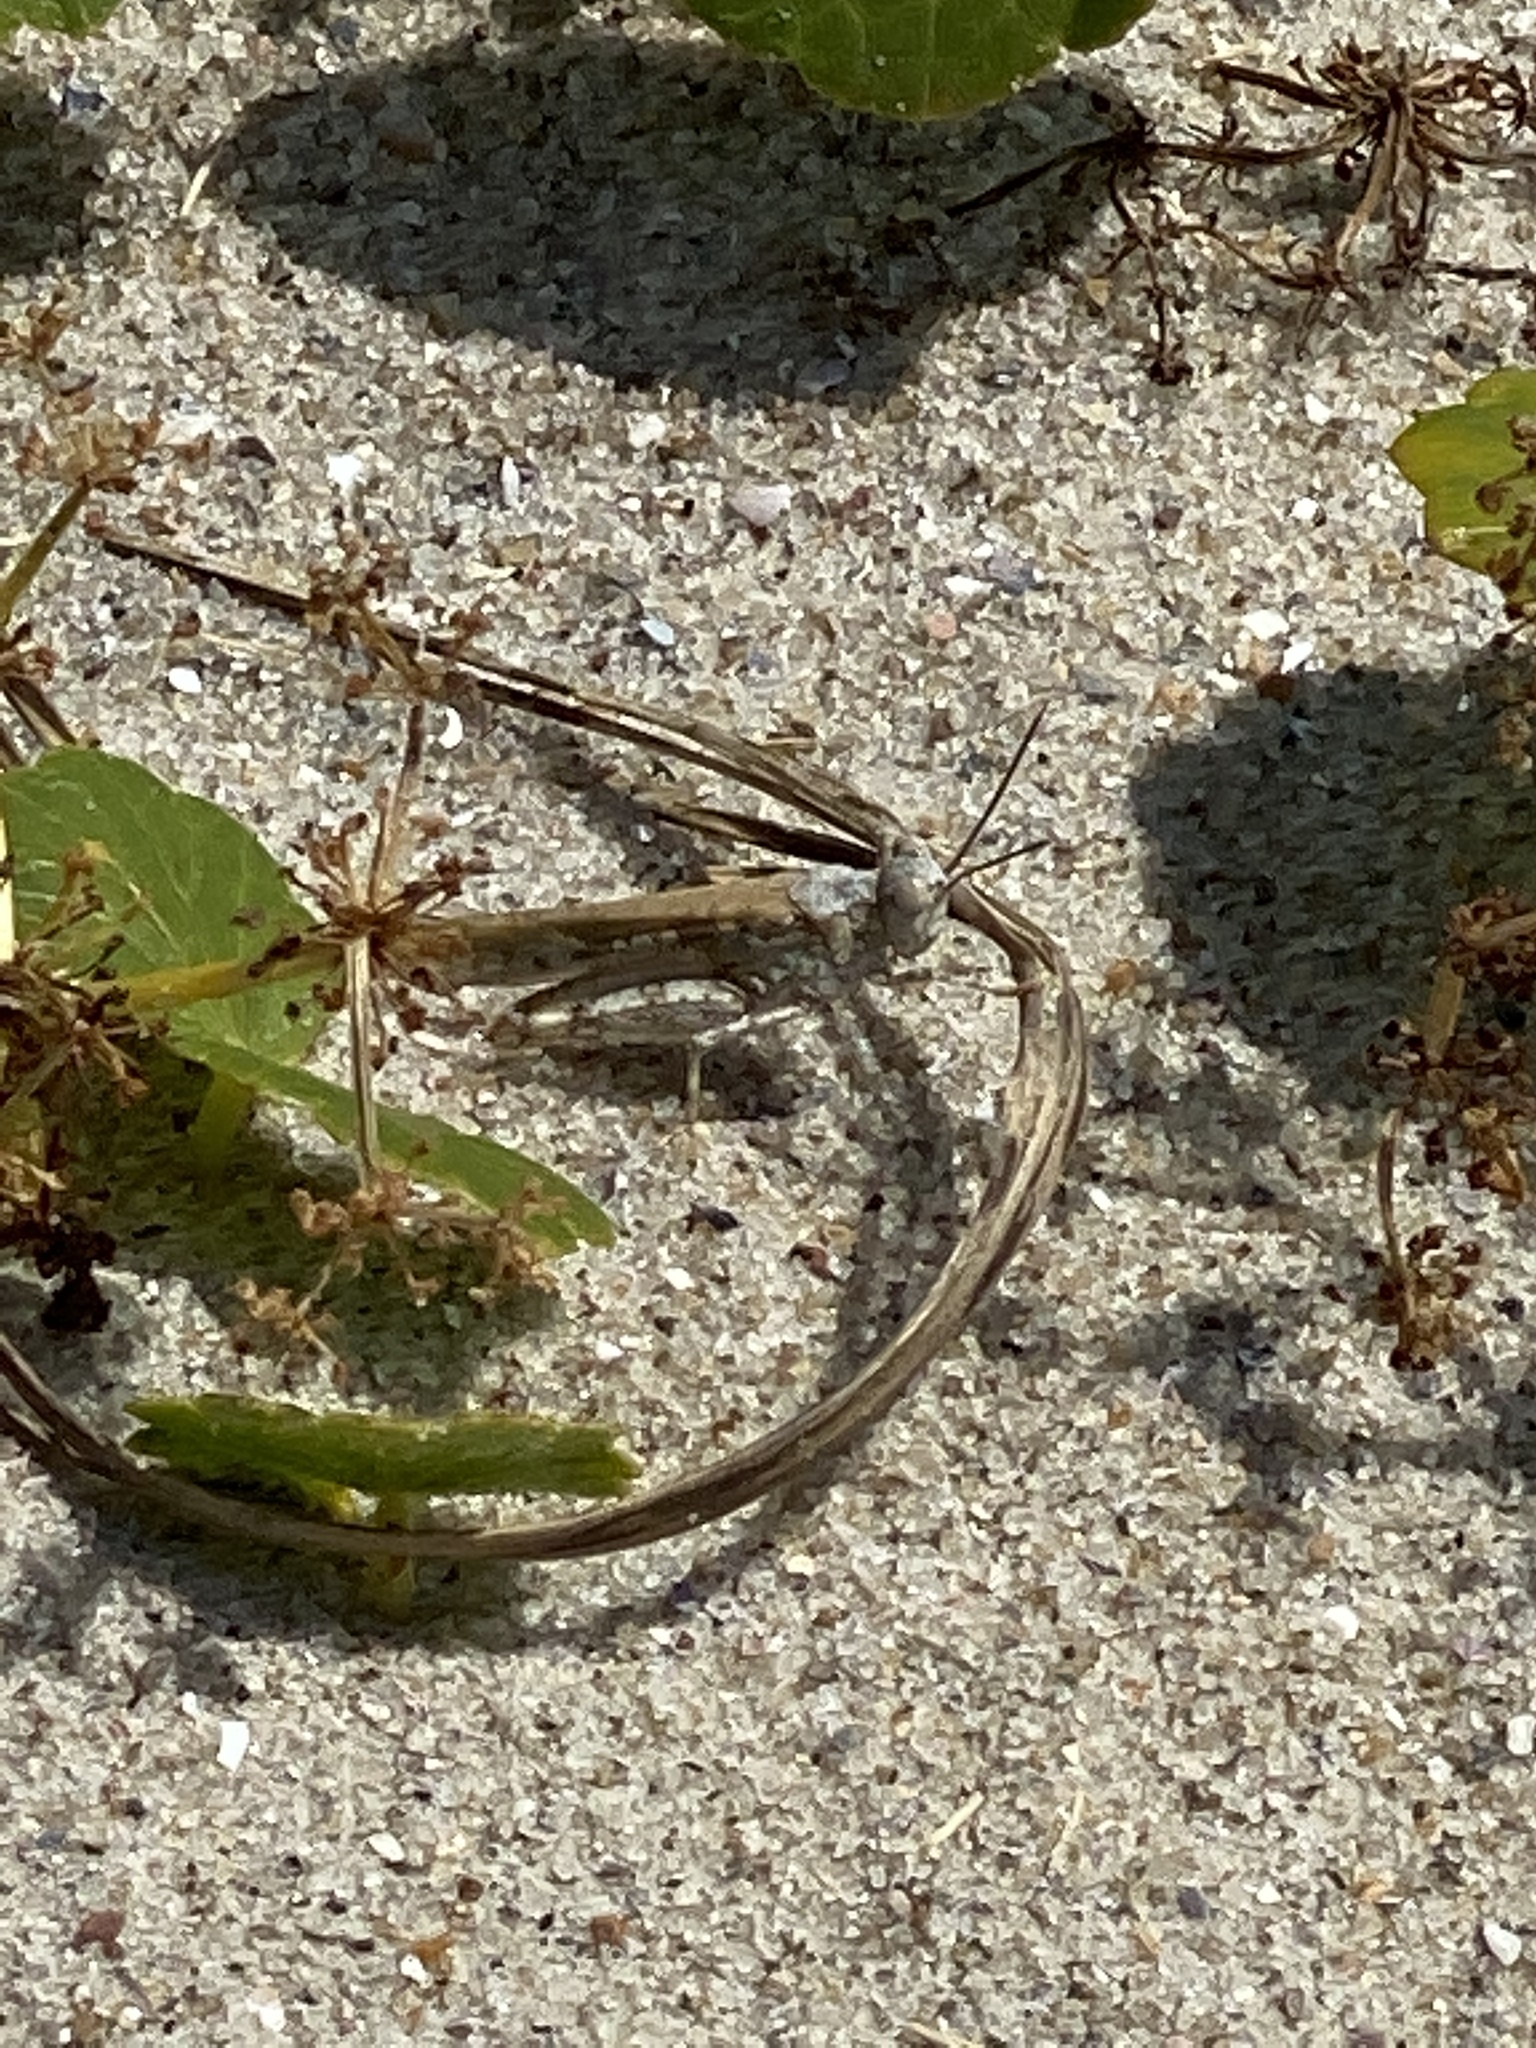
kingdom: Animalia
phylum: Arthropoda
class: Insecta
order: Orthoptera
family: Acrididae
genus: Trimerotropis
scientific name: Trimerotropis maritima
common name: Seaside locust
